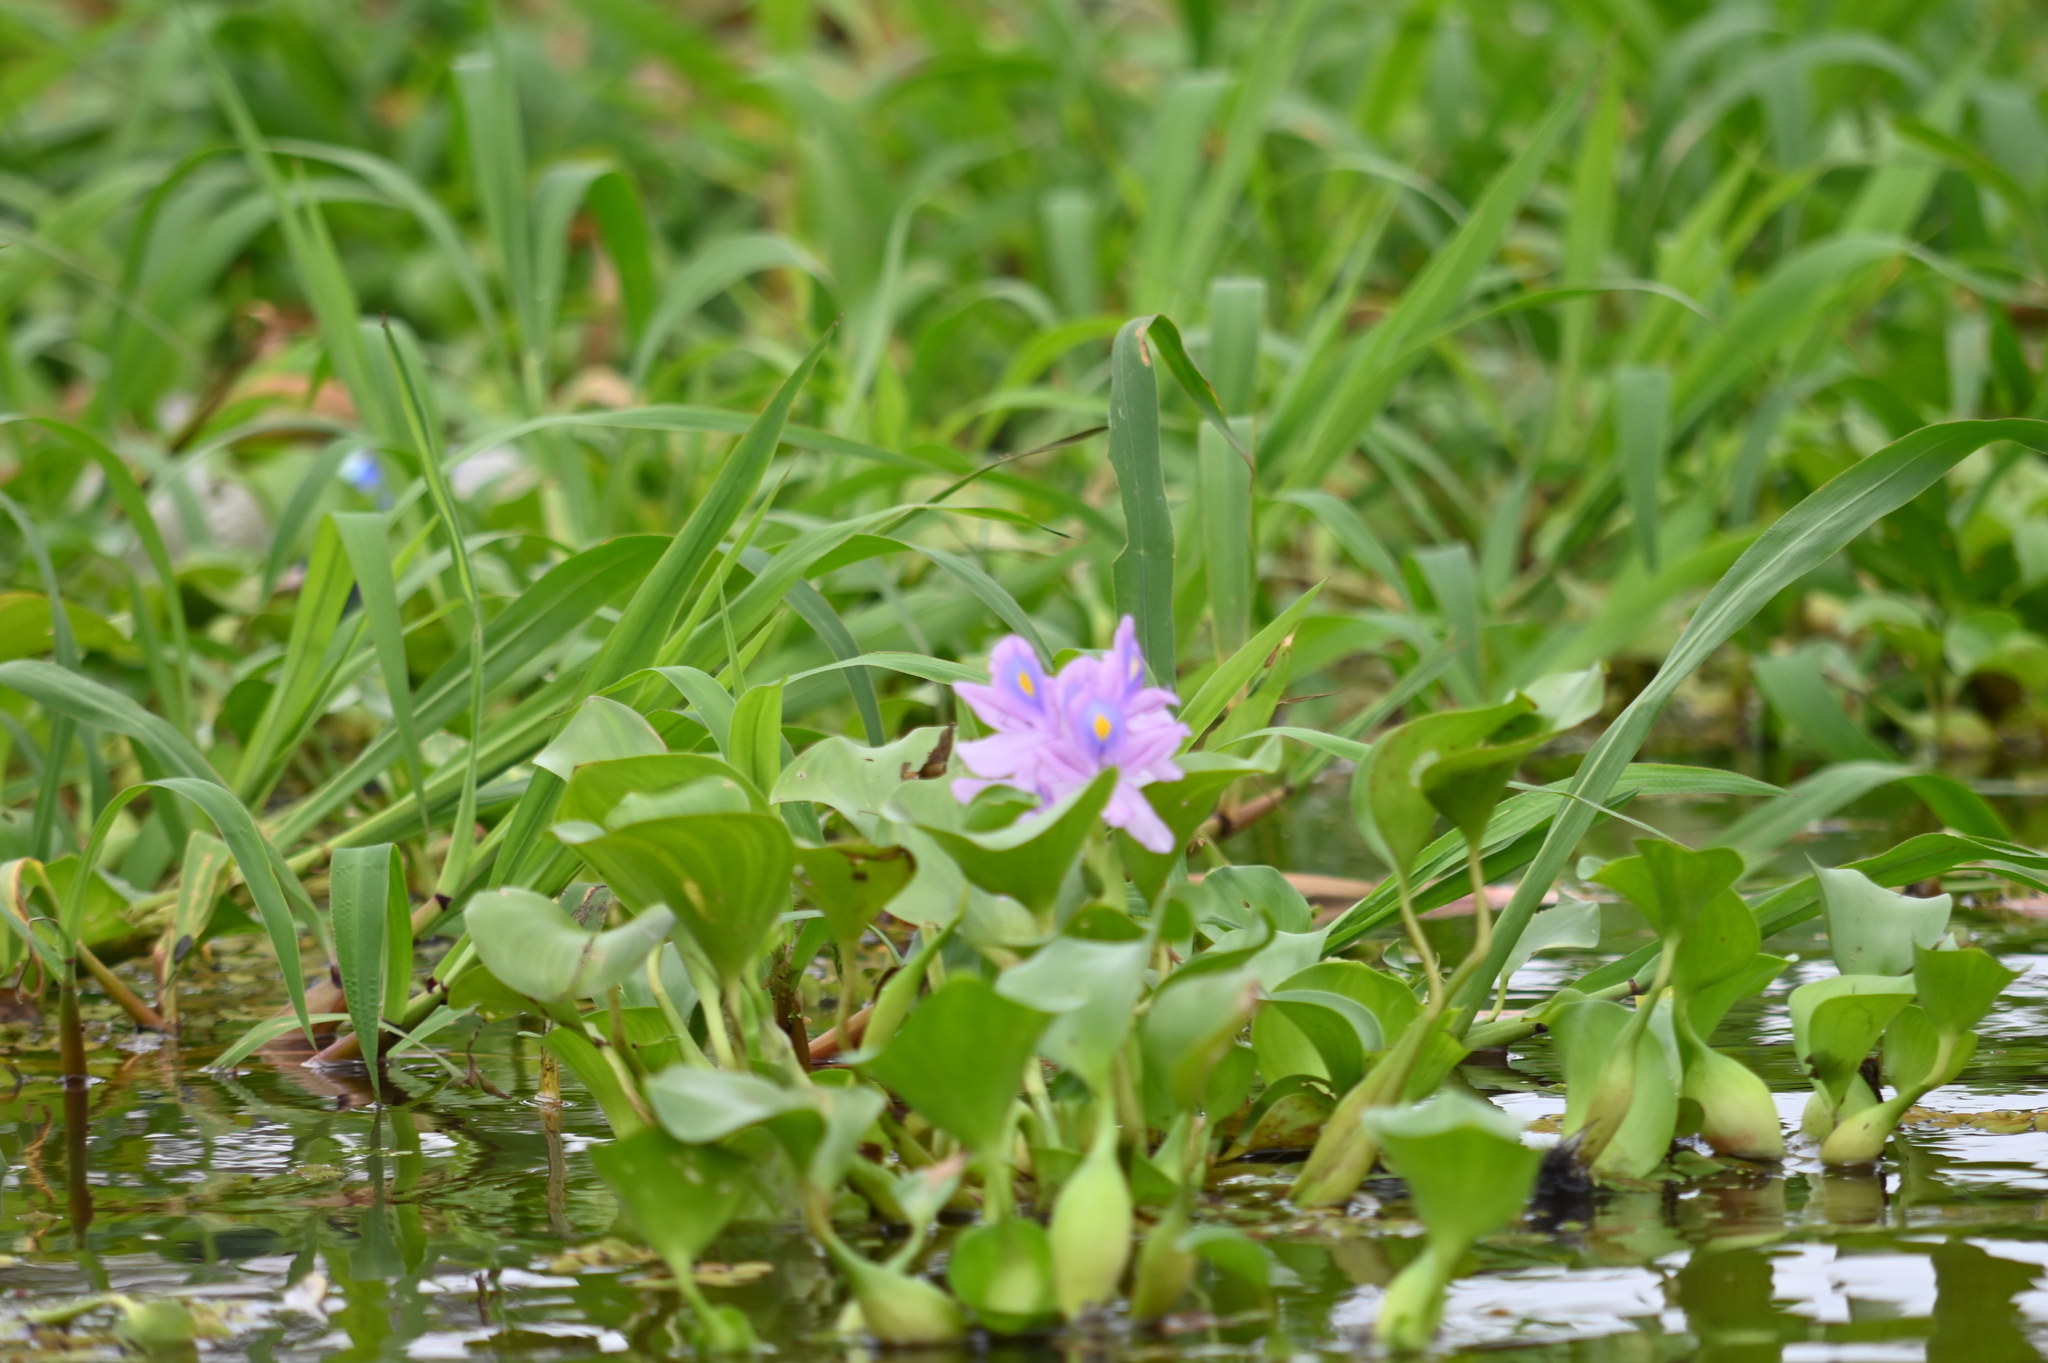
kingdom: Plantae
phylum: Tracheophyta
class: Liliopsida
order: Commelinales
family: Pontederiaceae
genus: Pontederia
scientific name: Pontederia crassipes
